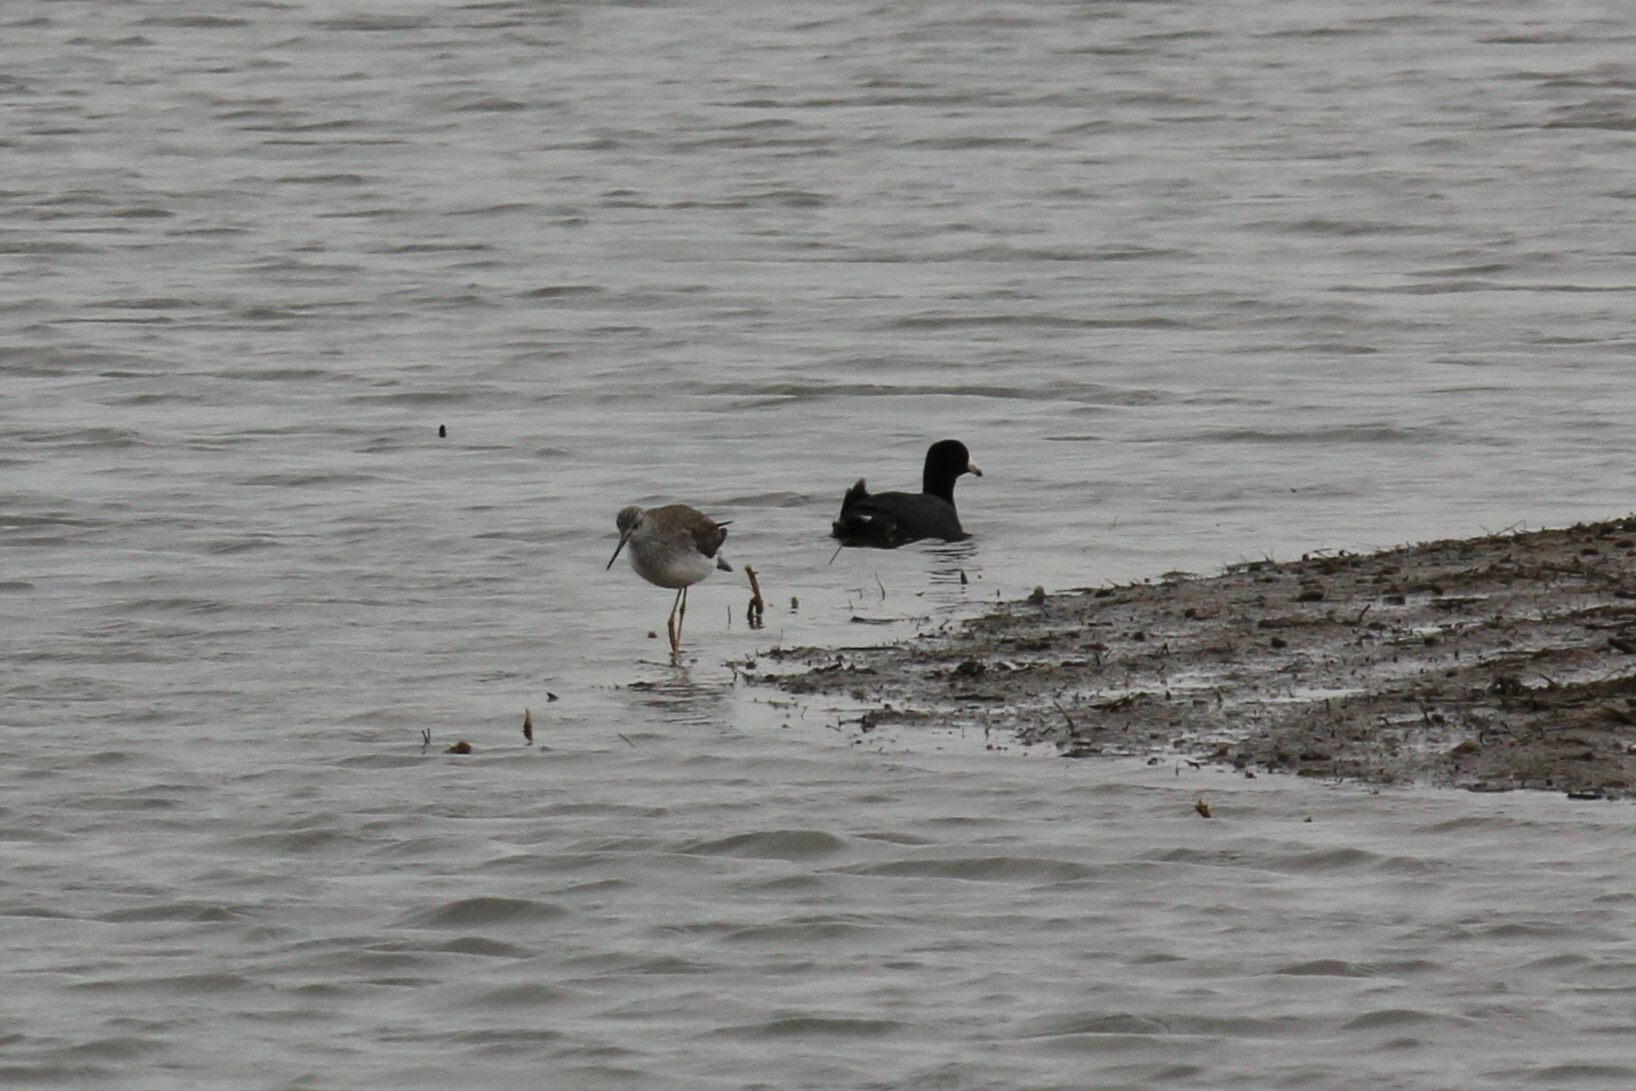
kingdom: Animalia
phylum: Chordata
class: Aves
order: Gruiformes
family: Rallidae
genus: Fulica
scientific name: Fulica americana
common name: American coot
